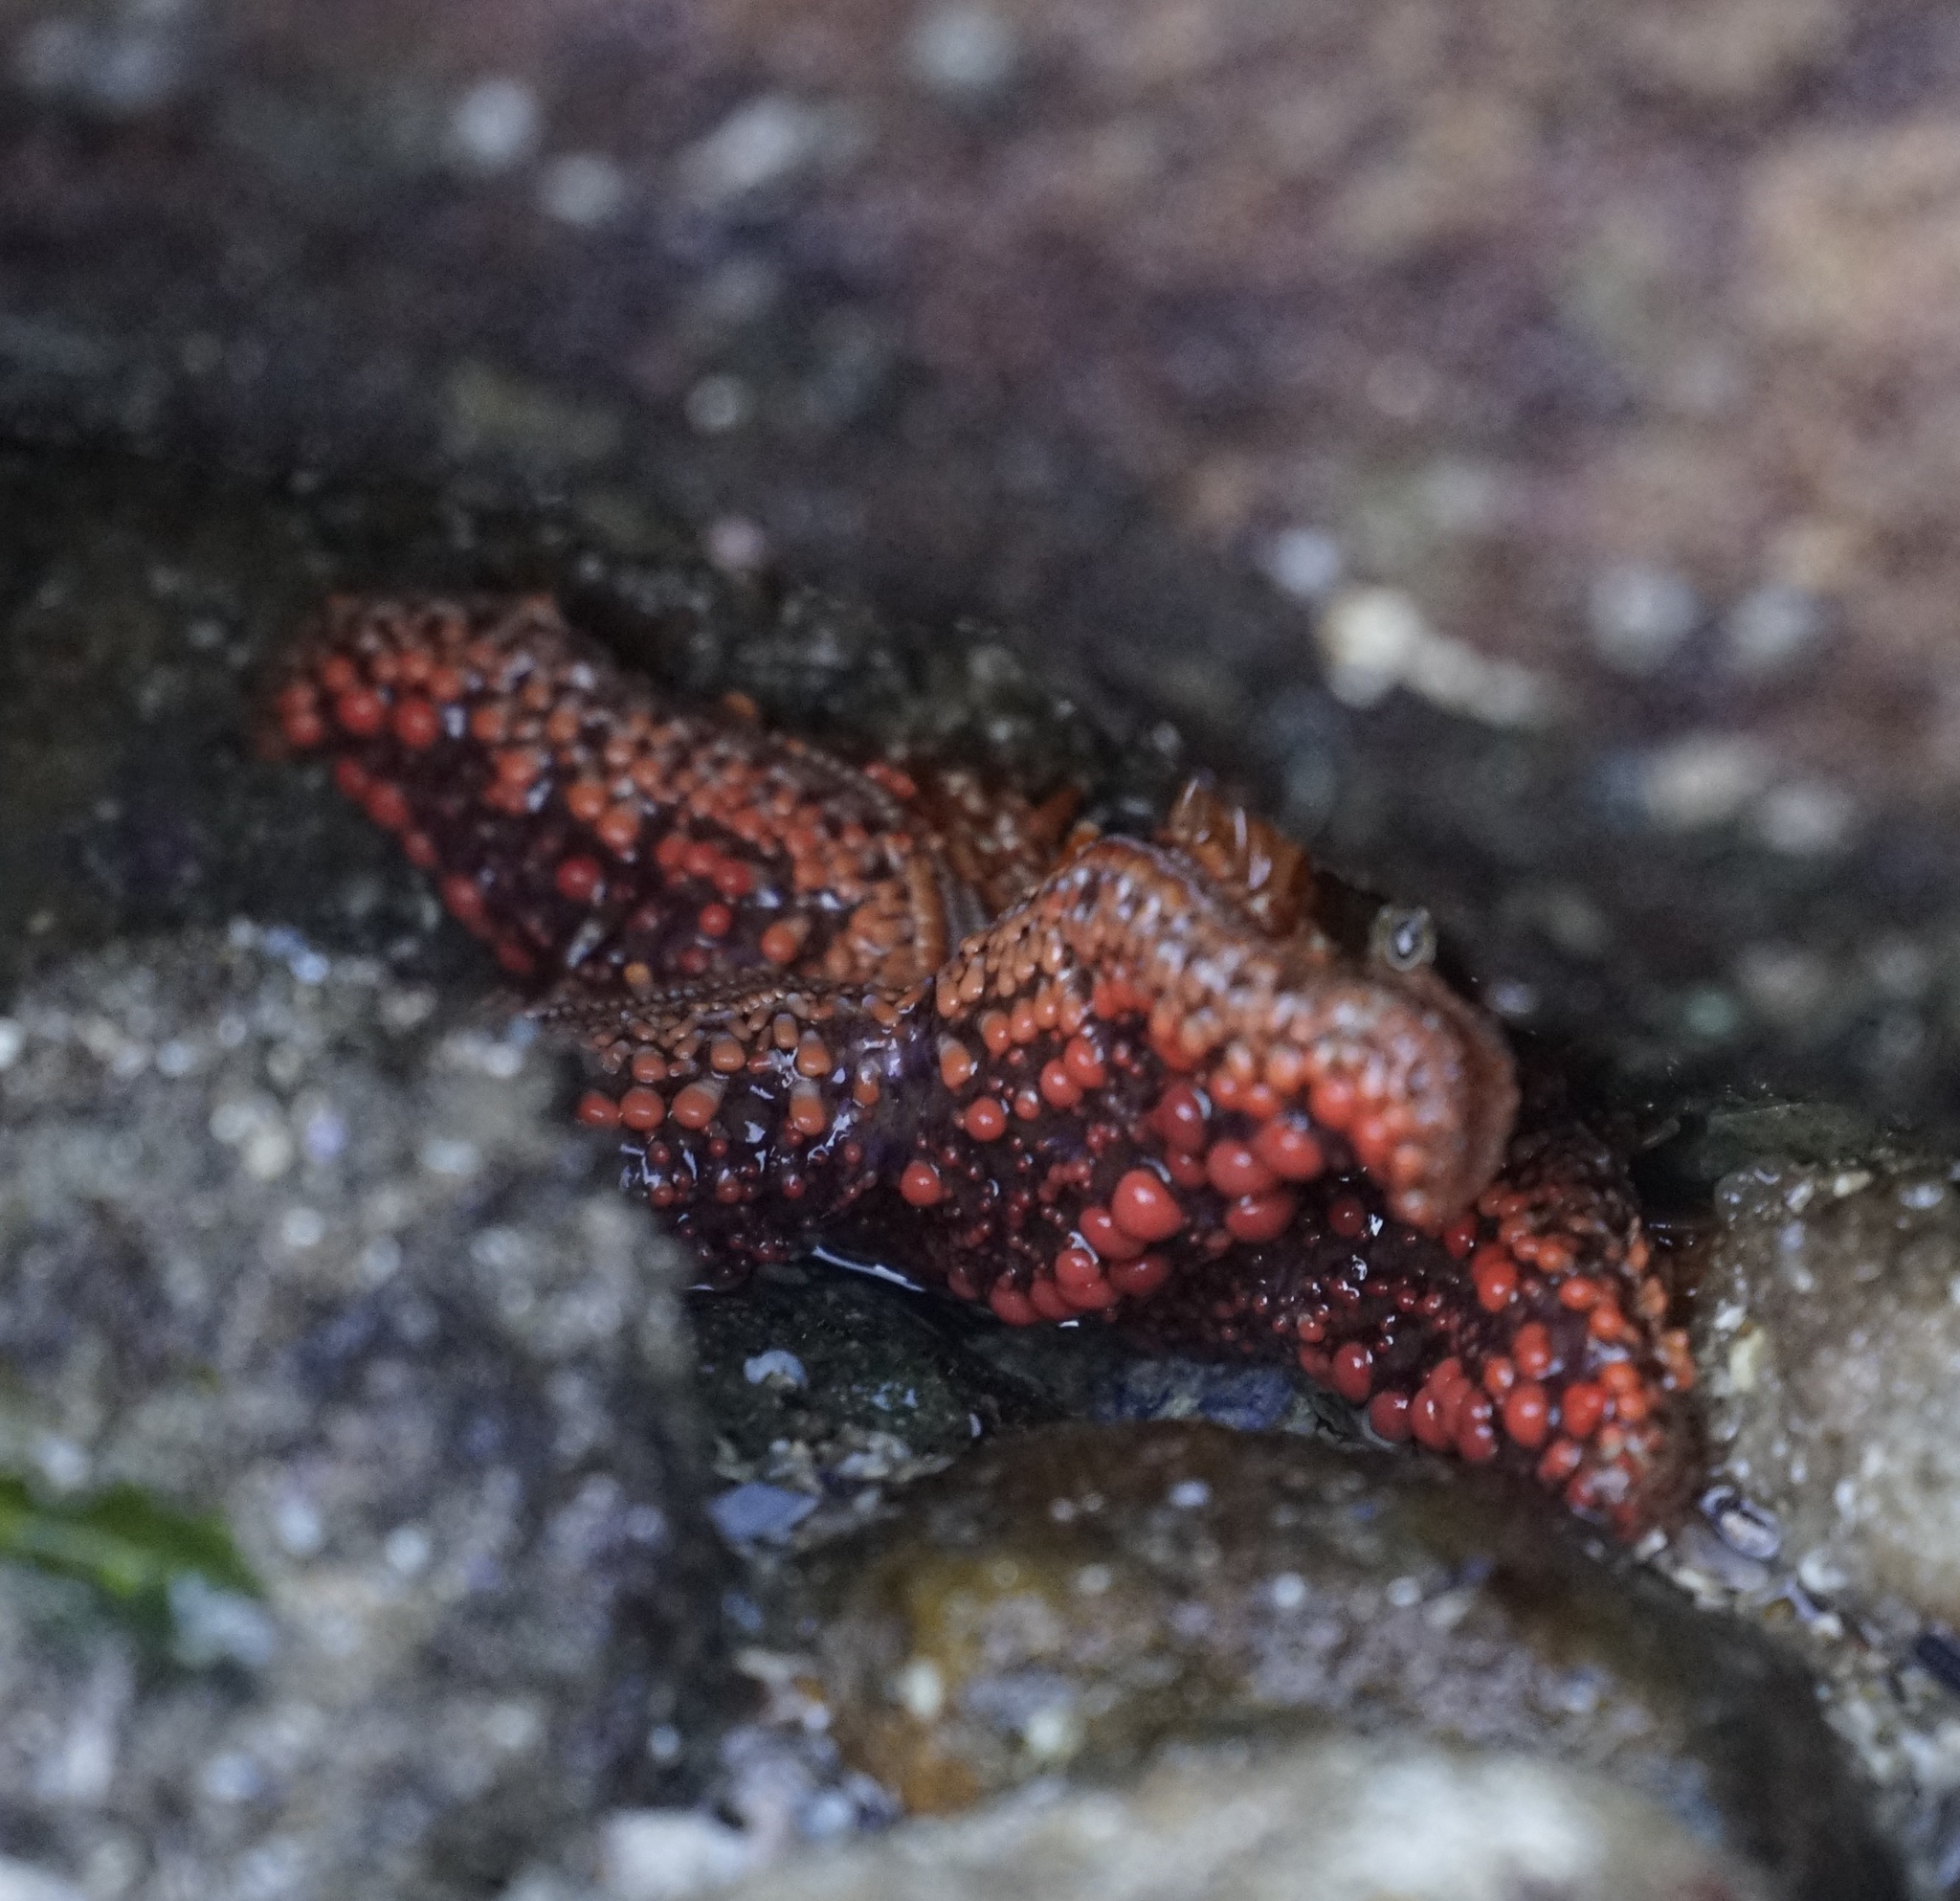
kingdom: Animalia
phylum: Echinodermata
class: Asteroidea
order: Forcipulatida
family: Stichasteridae
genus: Uniophora
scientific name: Uniophora granifera
